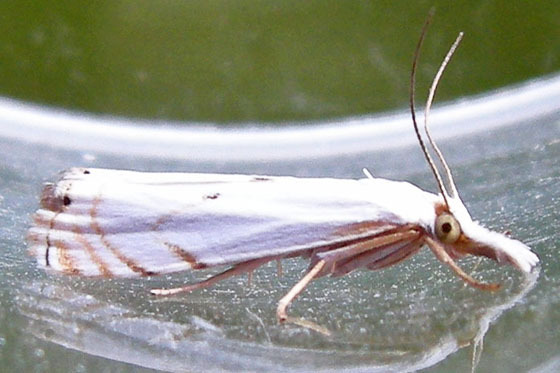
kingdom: Animalia
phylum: Arthropoda
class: Insecta
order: Lepidoptera
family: Crambidae
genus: Microcrambus
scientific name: Microcrambus biguttellus
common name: Gold-stripe grass-veneer moth
